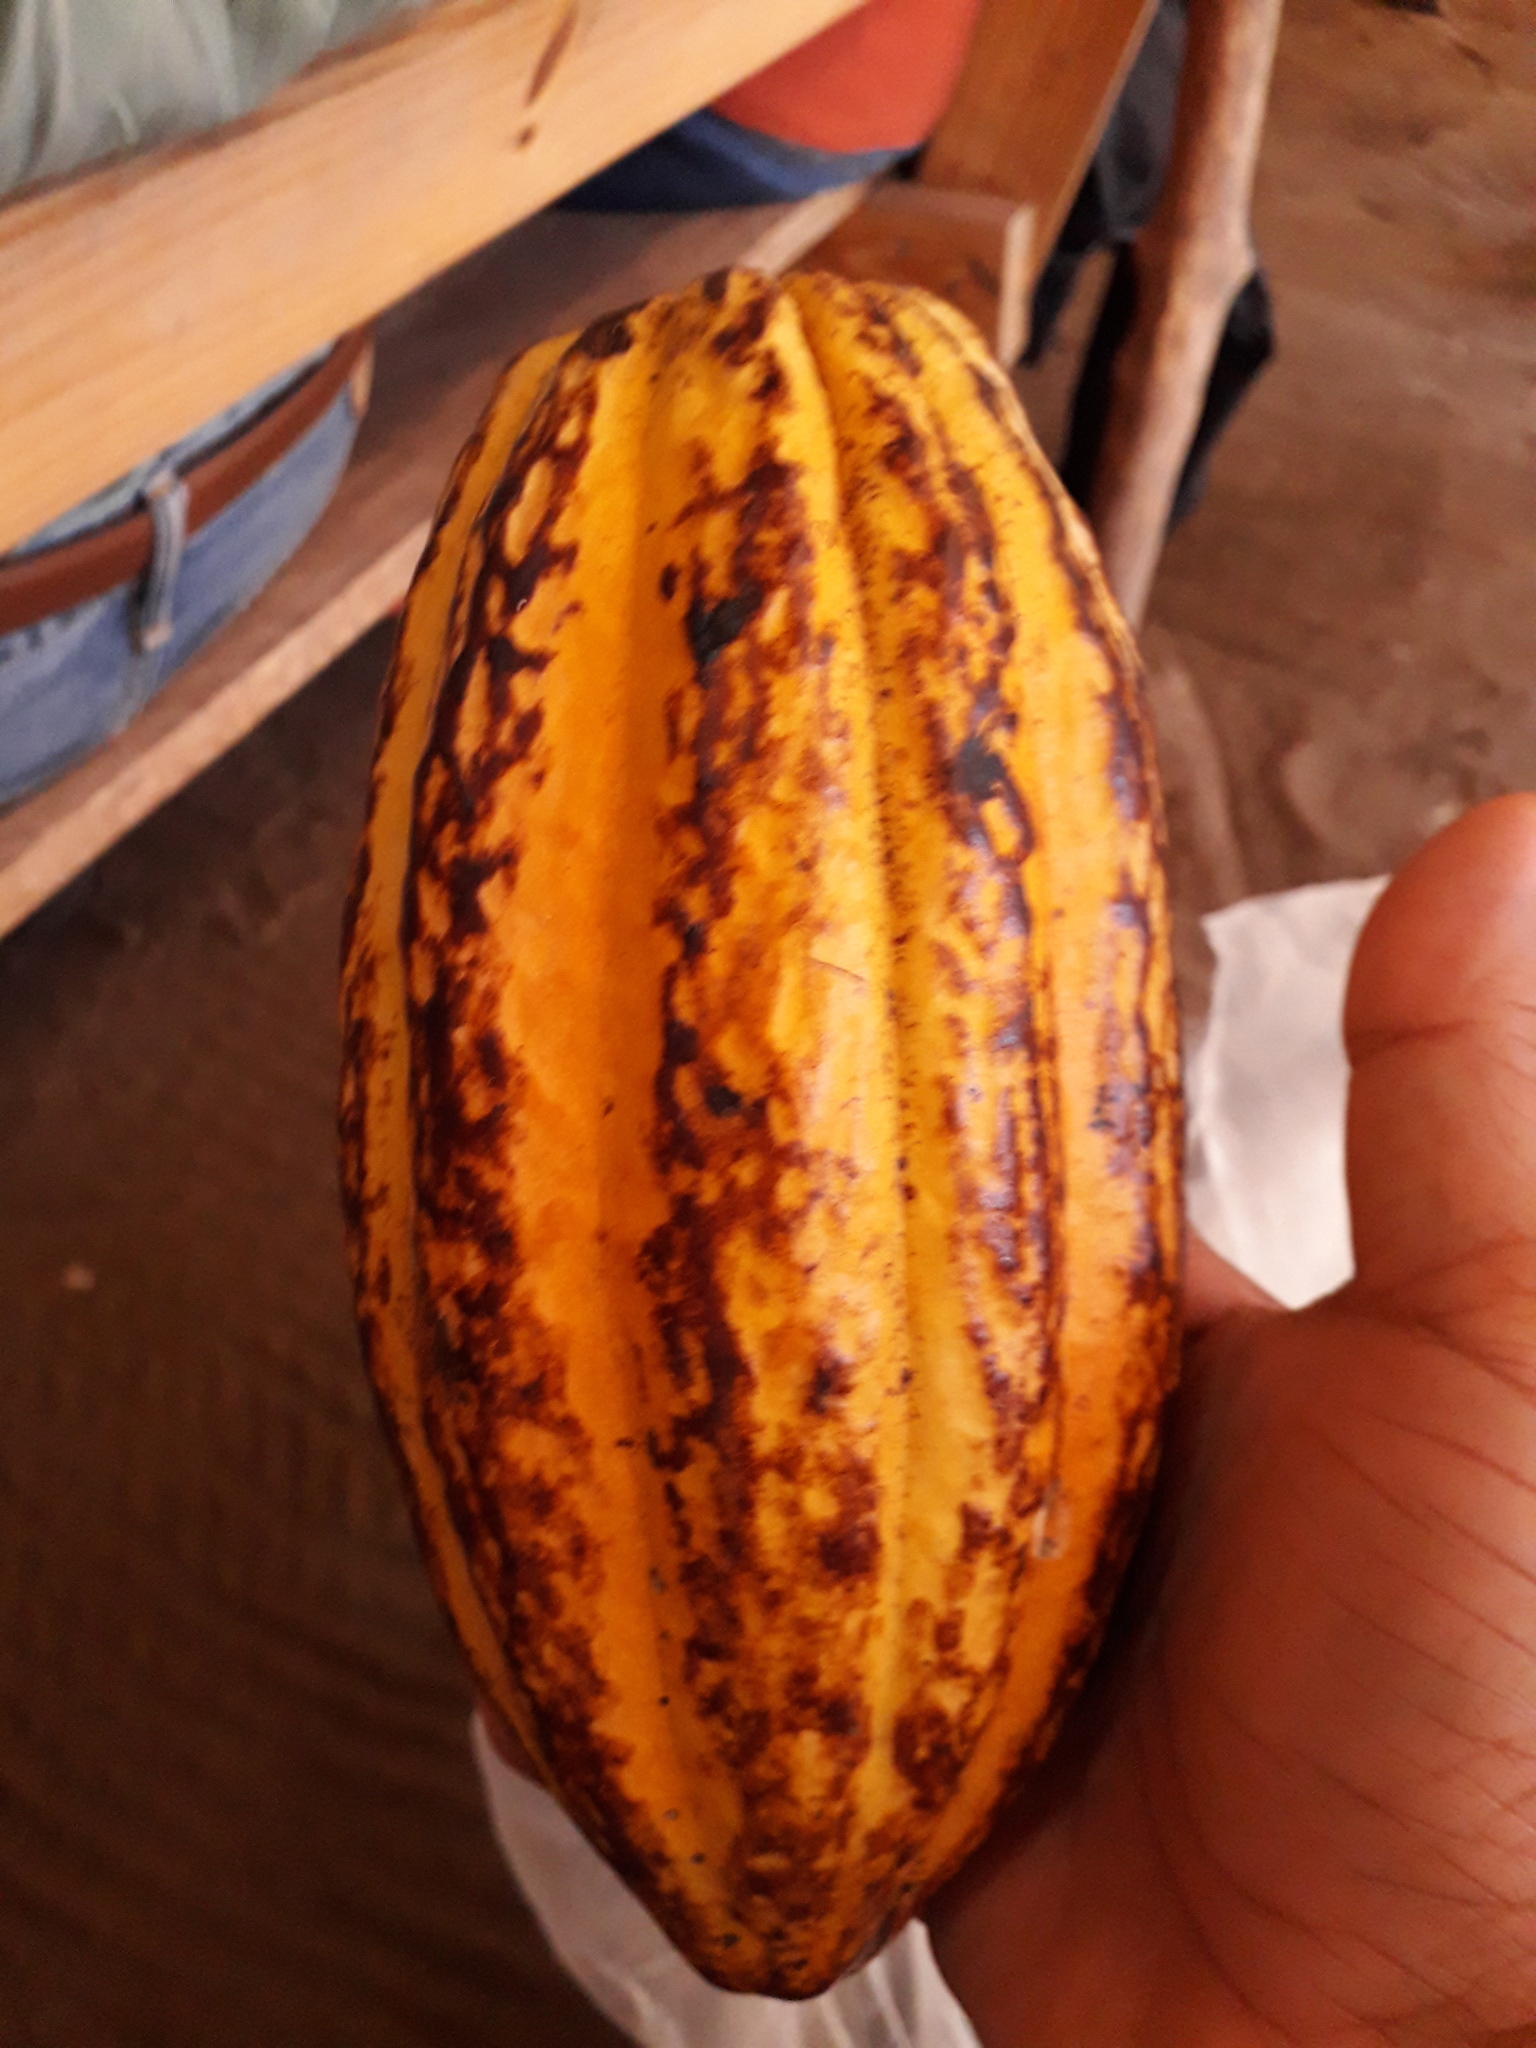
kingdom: Plantae
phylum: Tracheophyta
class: Magnoliopsida
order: Malvales
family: Malvaceae
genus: Theobroma
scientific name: Theobroma cacao
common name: Cocoa
